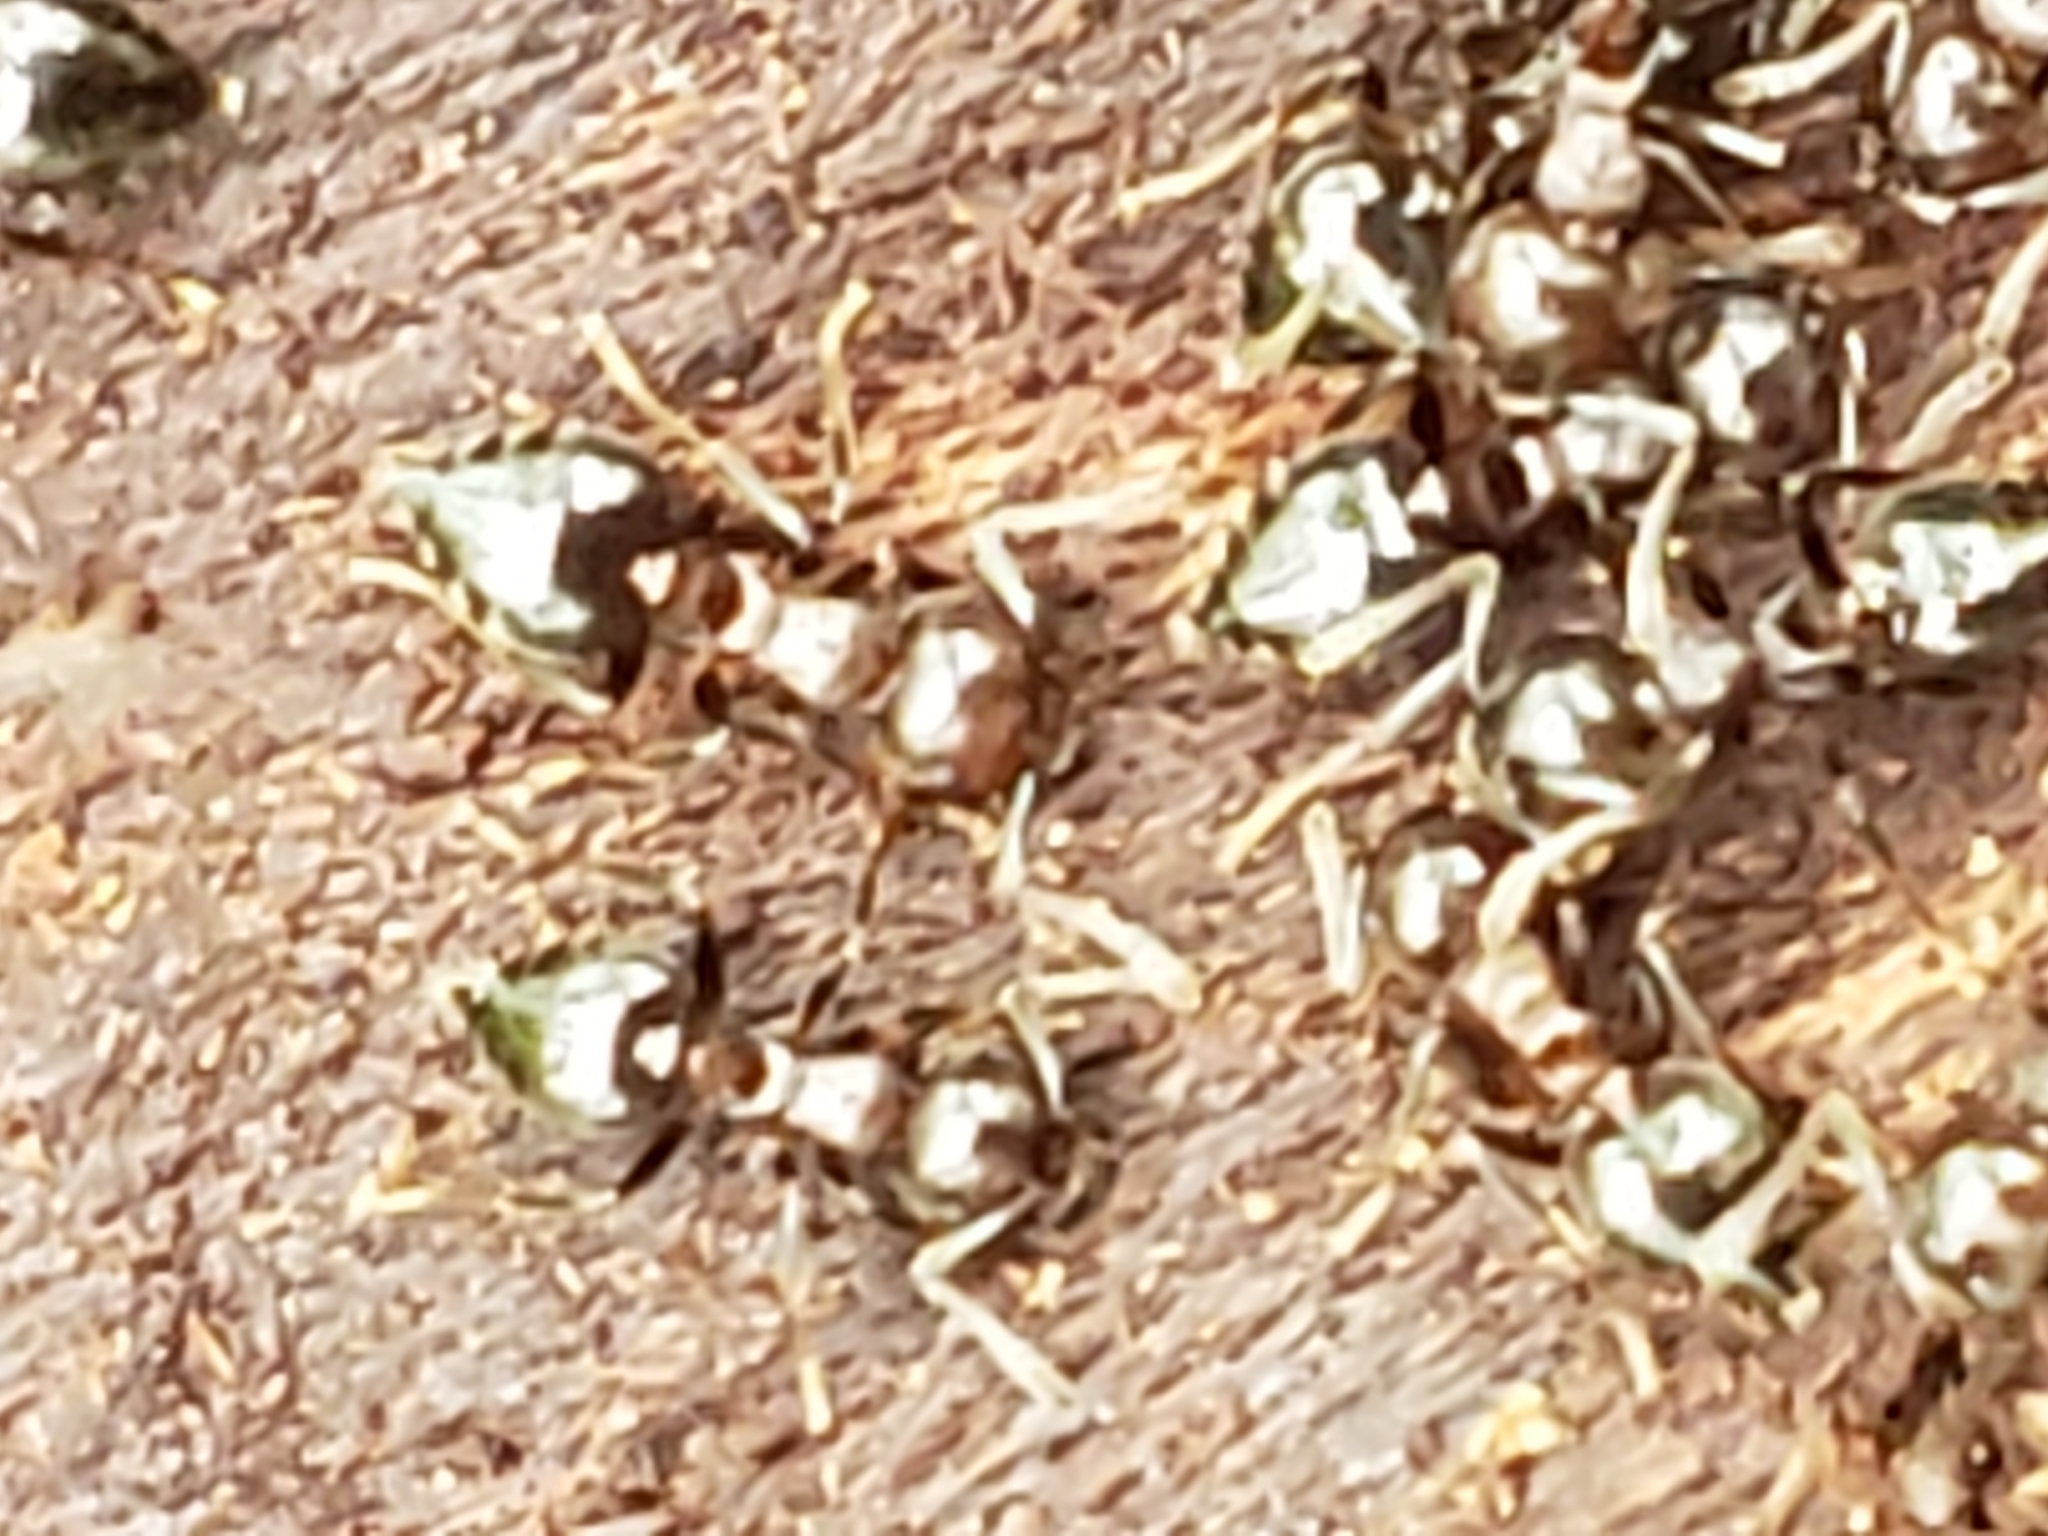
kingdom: Animalia
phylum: Arthropoda
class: Insecta
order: Hymenoptera
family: Formicidae
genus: Crematogaster
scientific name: Crematogaster
